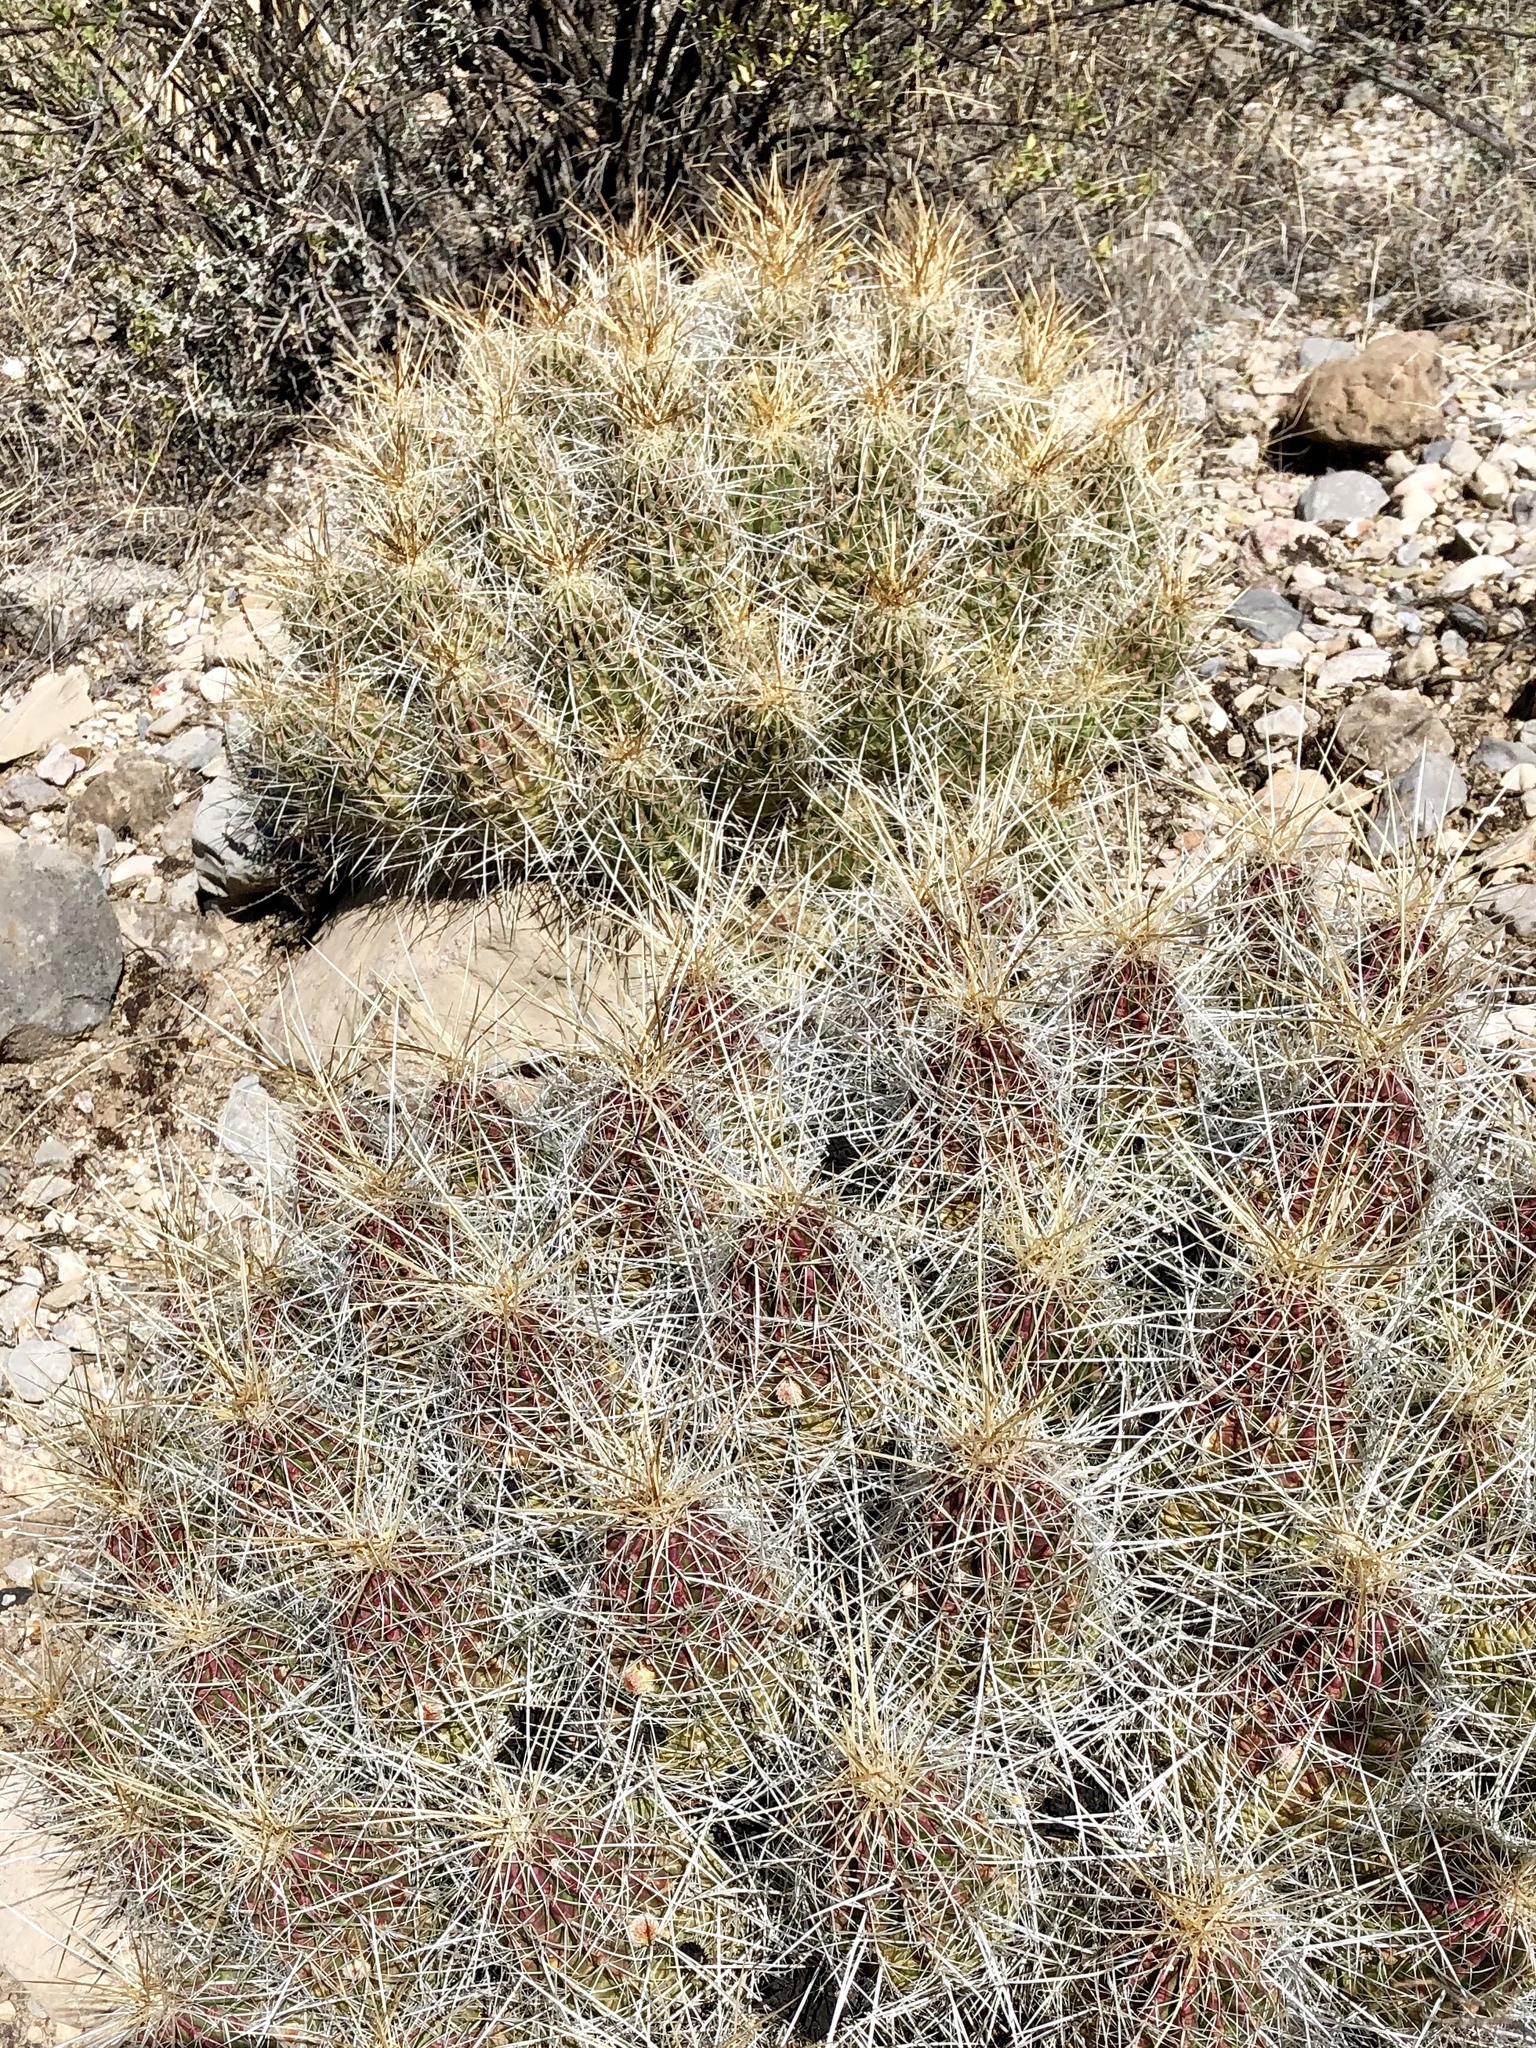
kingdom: Plantae
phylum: Tracheophyta
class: Magnoliopsida
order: Caryophyllales
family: Cactaceae
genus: Echinocereus
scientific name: Echinocereus stramineus
